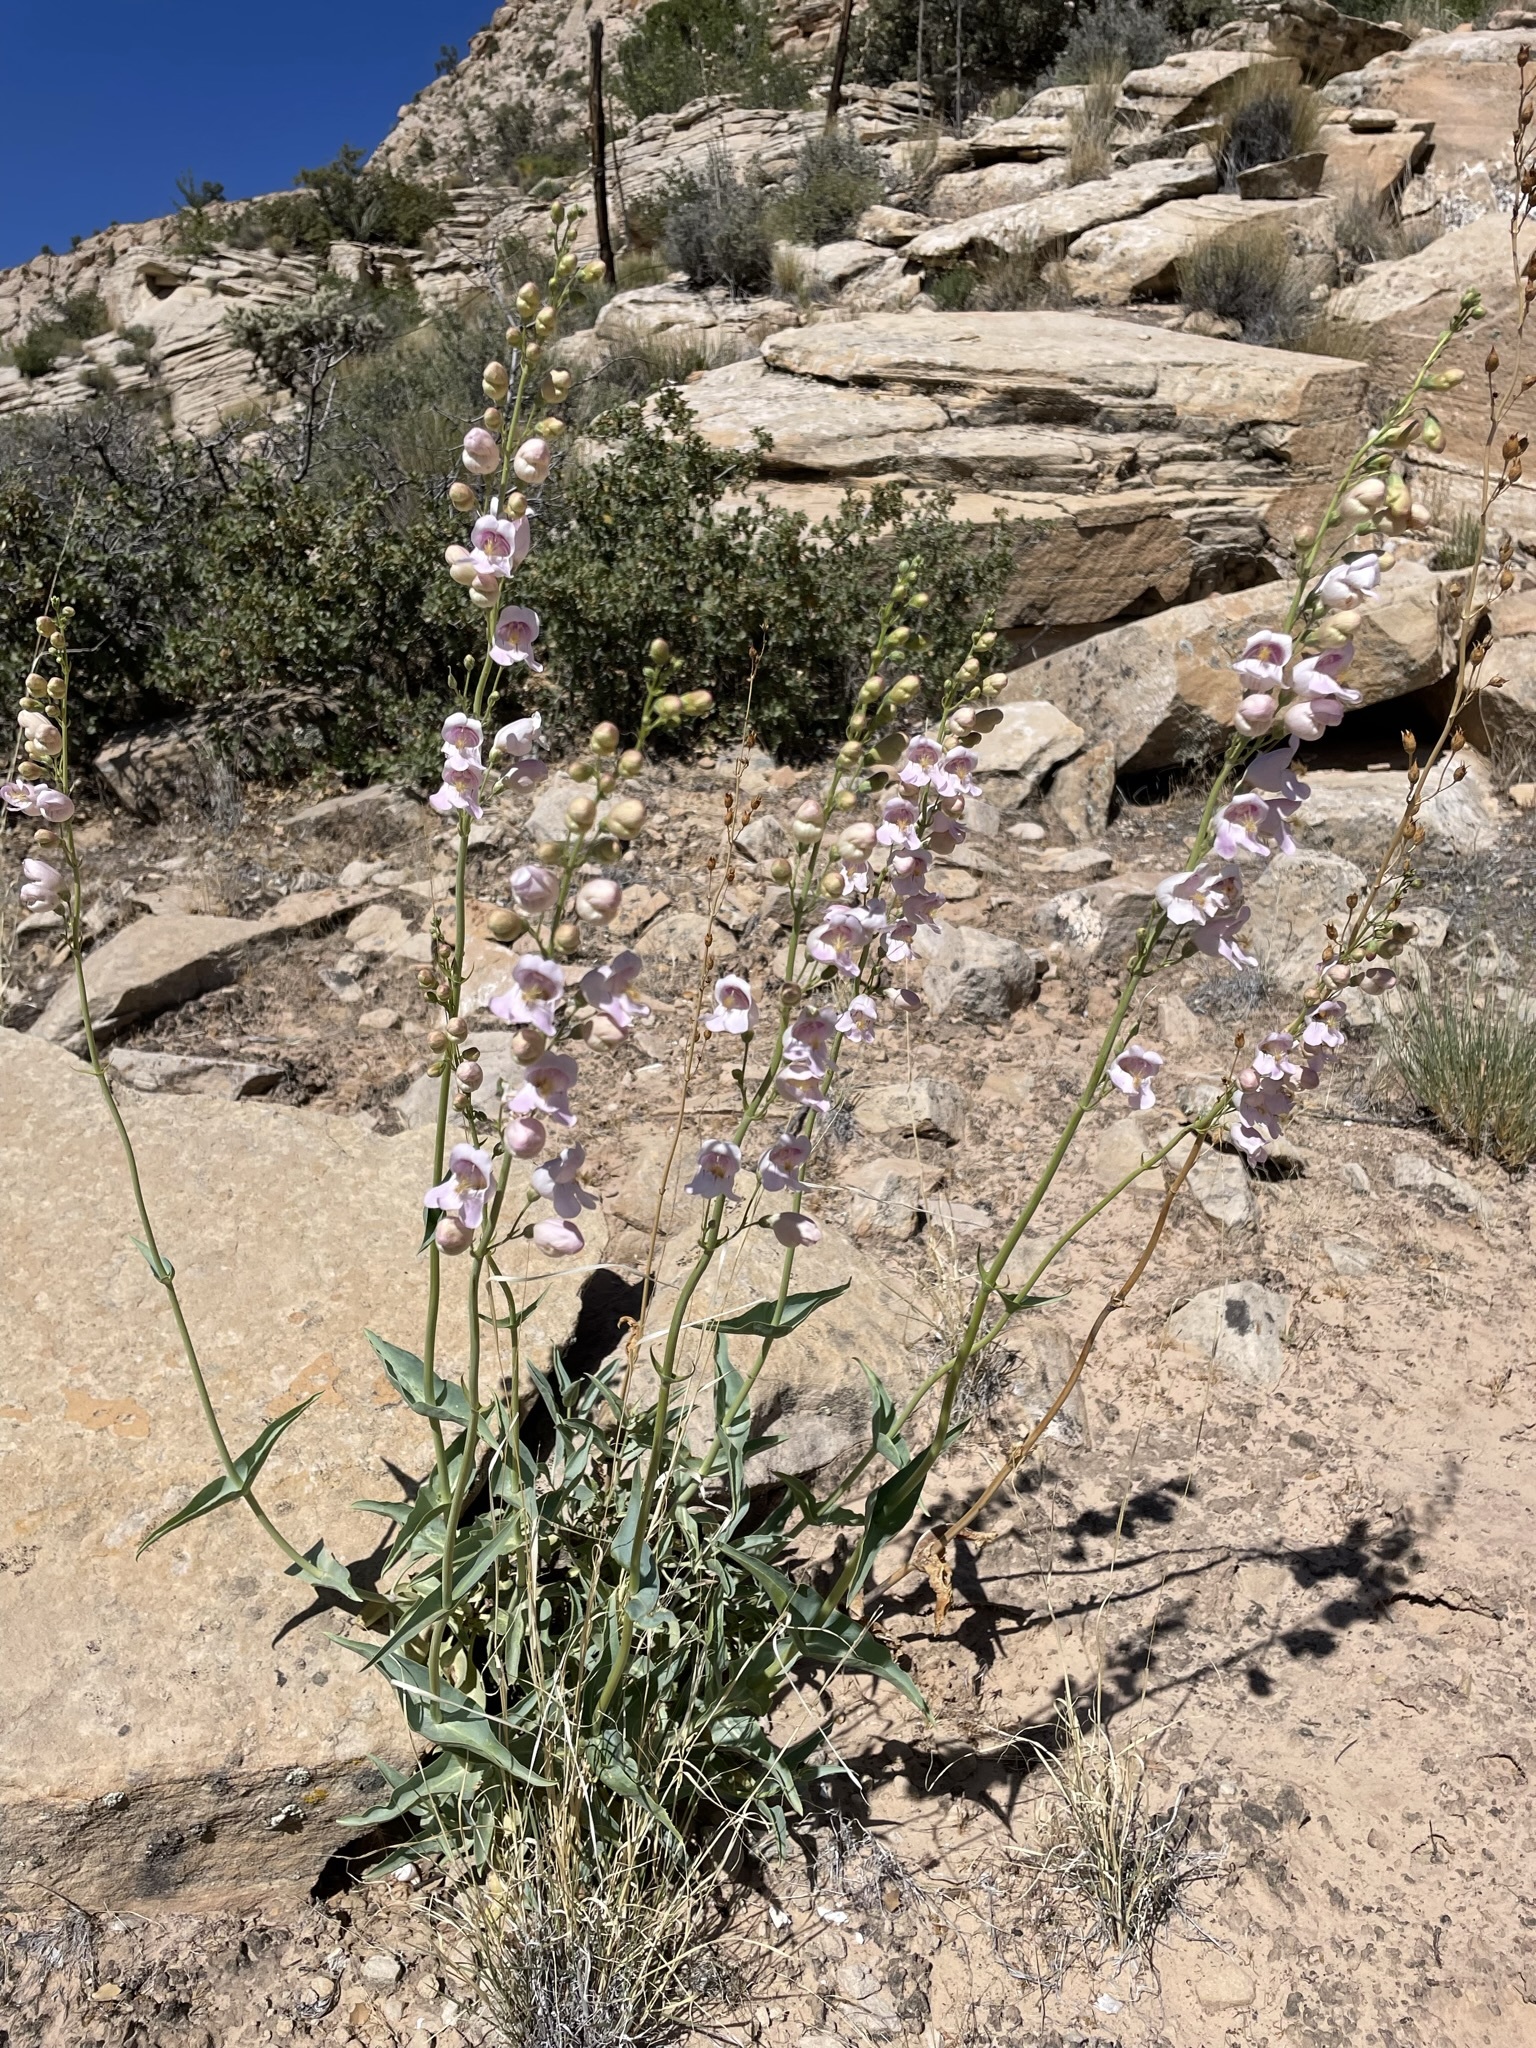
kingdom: Plantae
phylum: Tracheophyta
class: Magnoliopsida
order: Lamiales
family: Plantaginaceae
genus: Penstemon
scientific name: Penstemon palmeri
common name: Palmer penstemon
